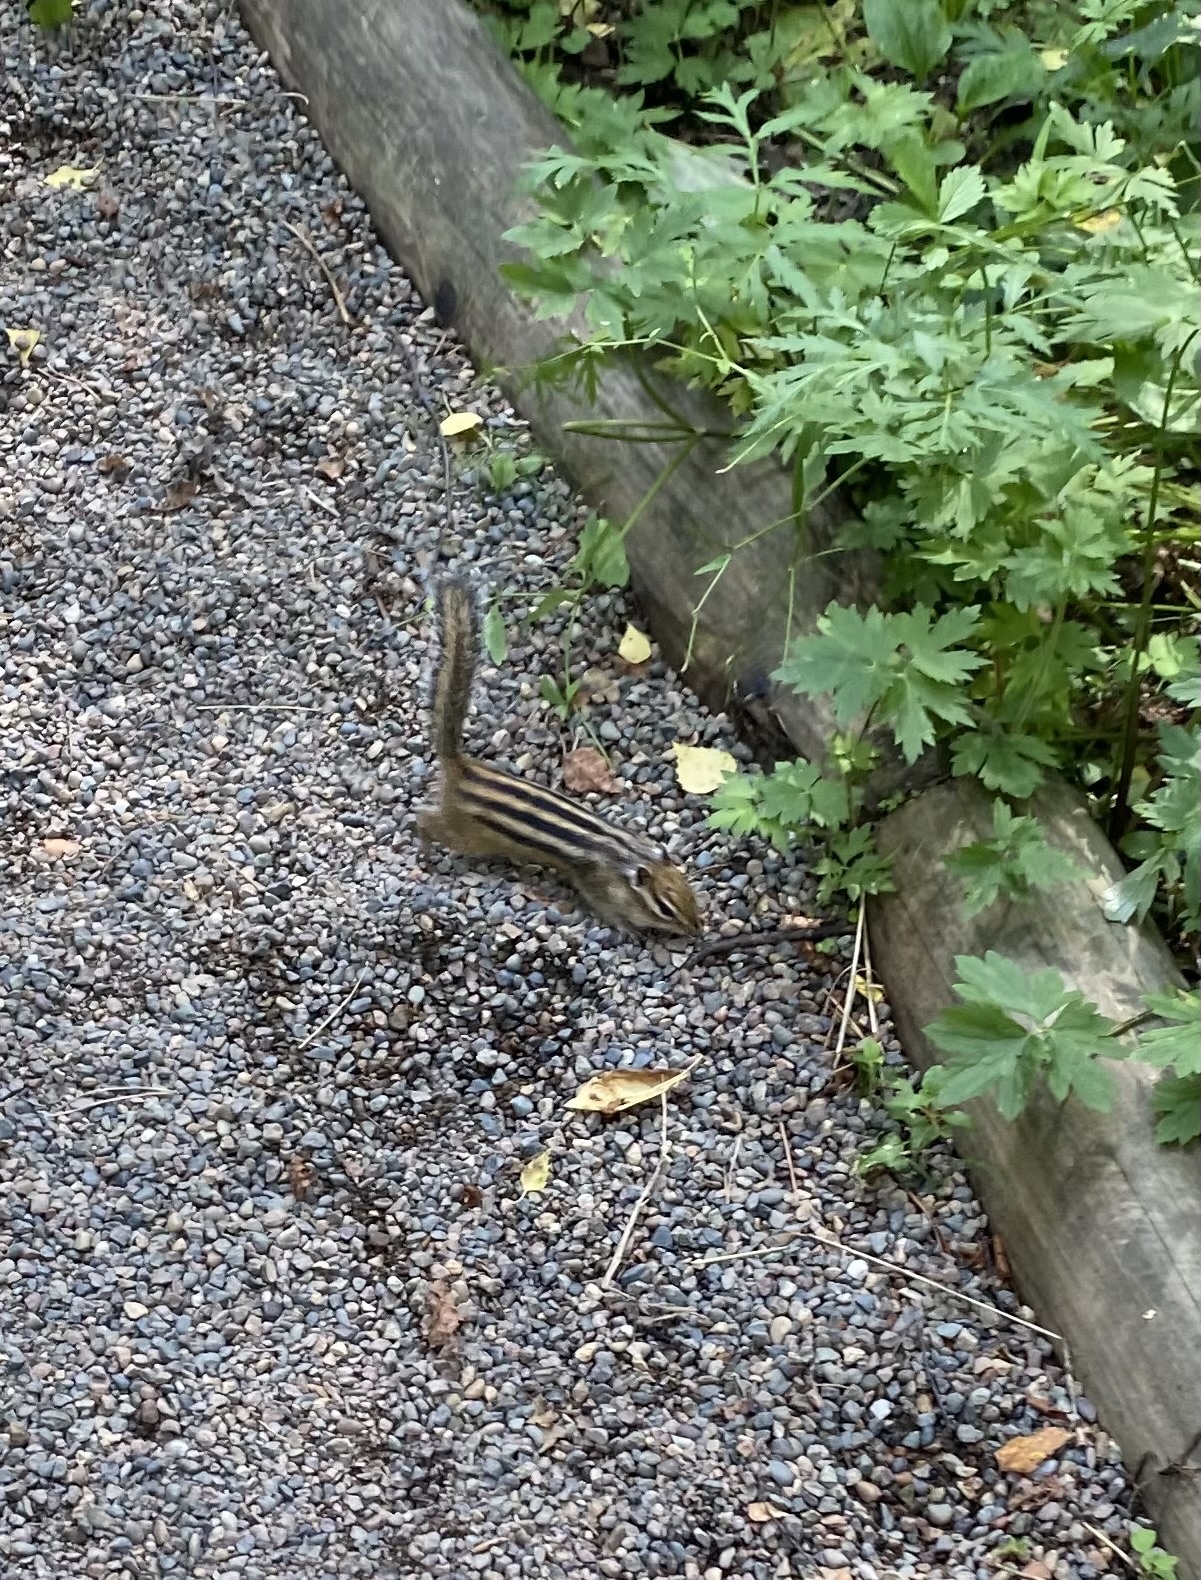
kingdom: Animalia
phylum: Chordata
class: Mammalia
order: Rodentia
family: Sciuridae
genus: Tamias
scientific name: Tamias sibiricus
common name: Siberian chipmunk
